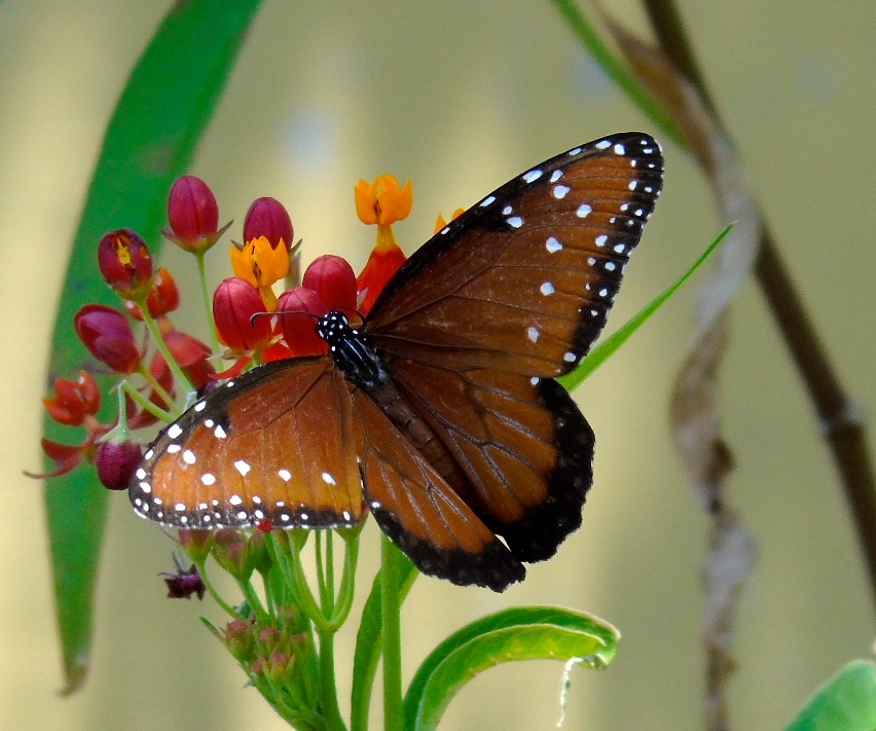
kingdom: Animalia
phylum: Arthropoda
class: Insecta
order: Lepidoptera
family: Nymphalidae
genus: Danaus
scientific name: Danaus gilippus
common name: Queen
